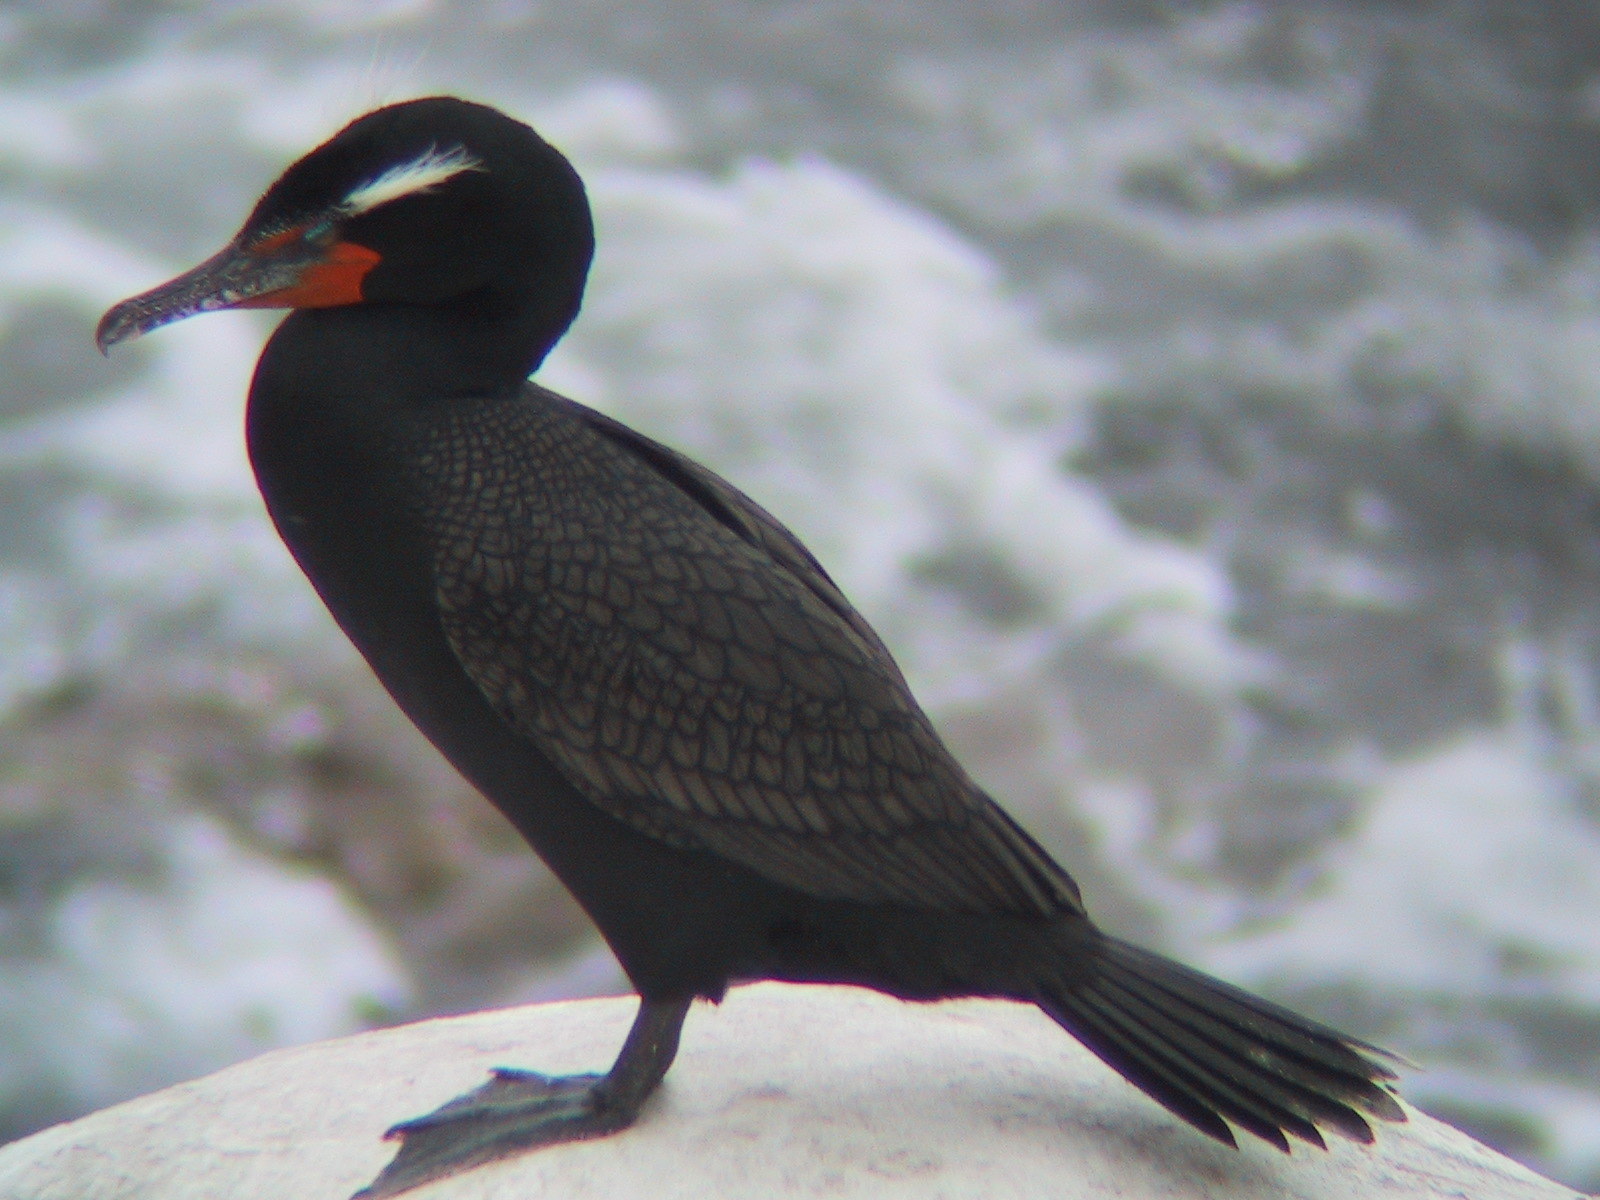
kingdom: Animalia
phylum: Chordata
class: Aves
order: Suliformes
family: Phalacrocoracidae
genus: Phalacrocorax
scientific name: Phalacrocorax auritus
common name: Double-crested cormorant
